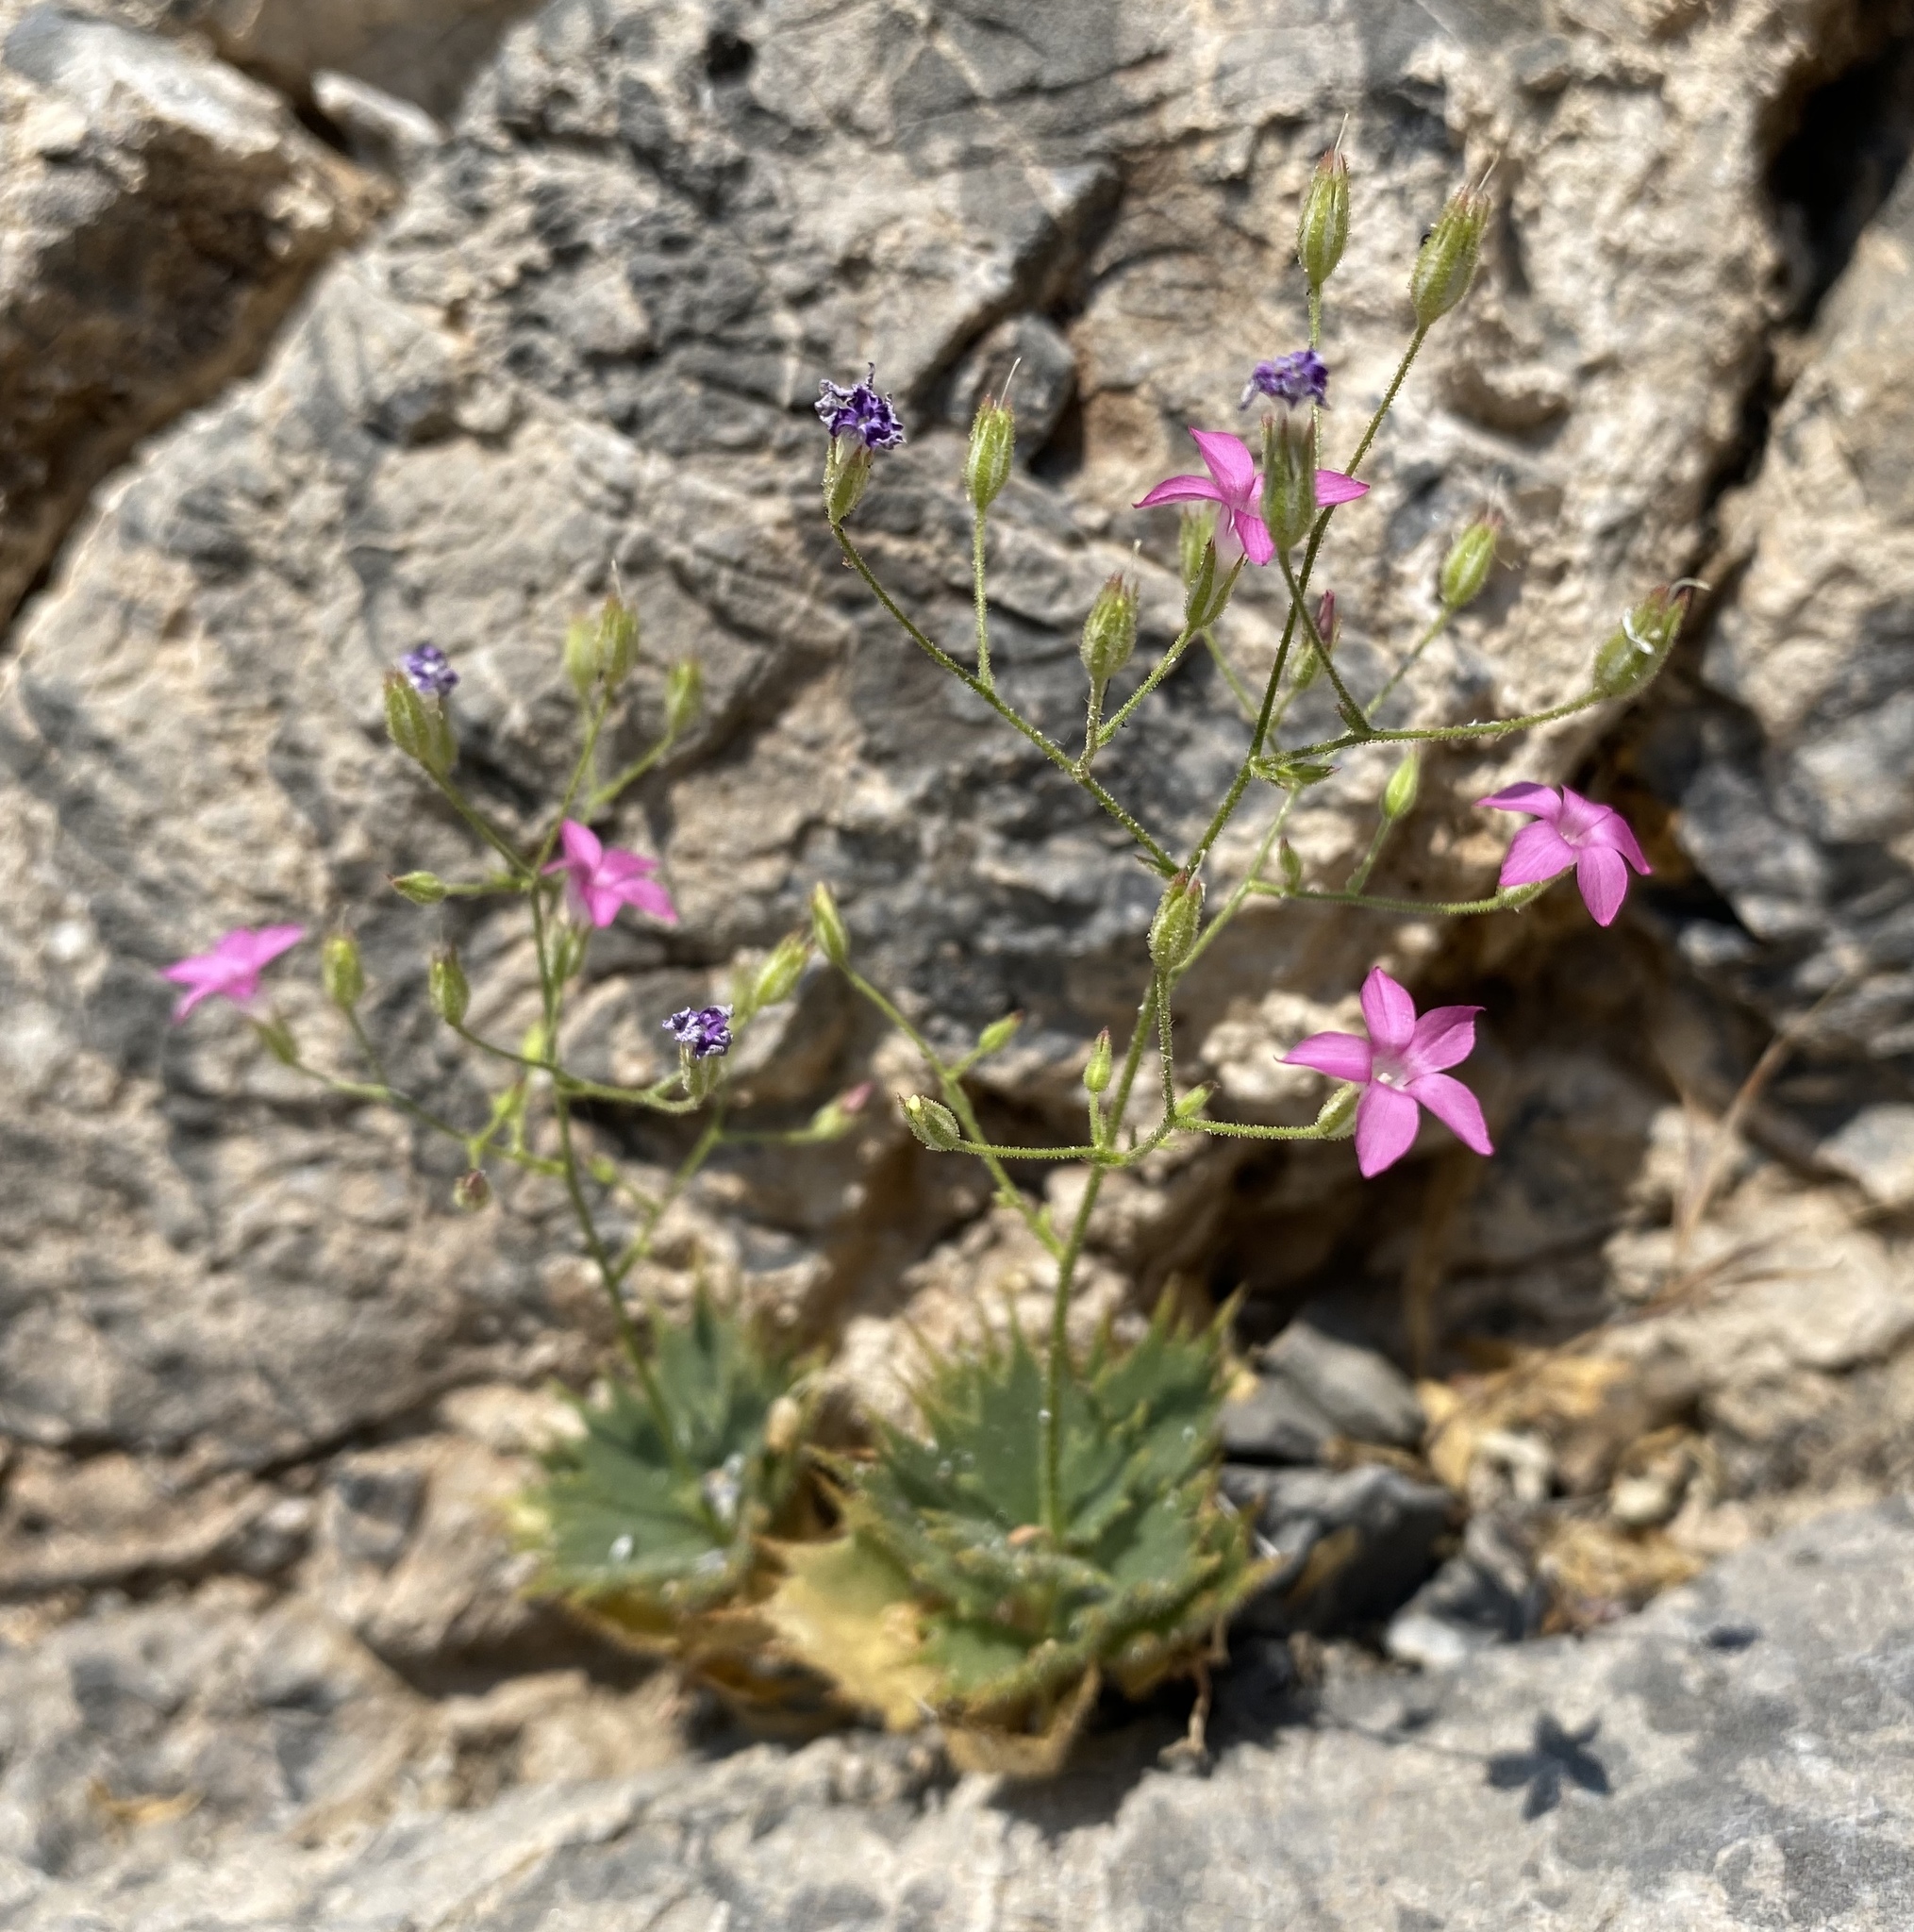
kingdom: Plantae
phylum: Tracheophyta
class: Magnoliopsida
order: Ericales
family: Polemoniaceae
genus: Aliciella
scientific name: Aliciella ripleyi
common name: Ripley's gilia
